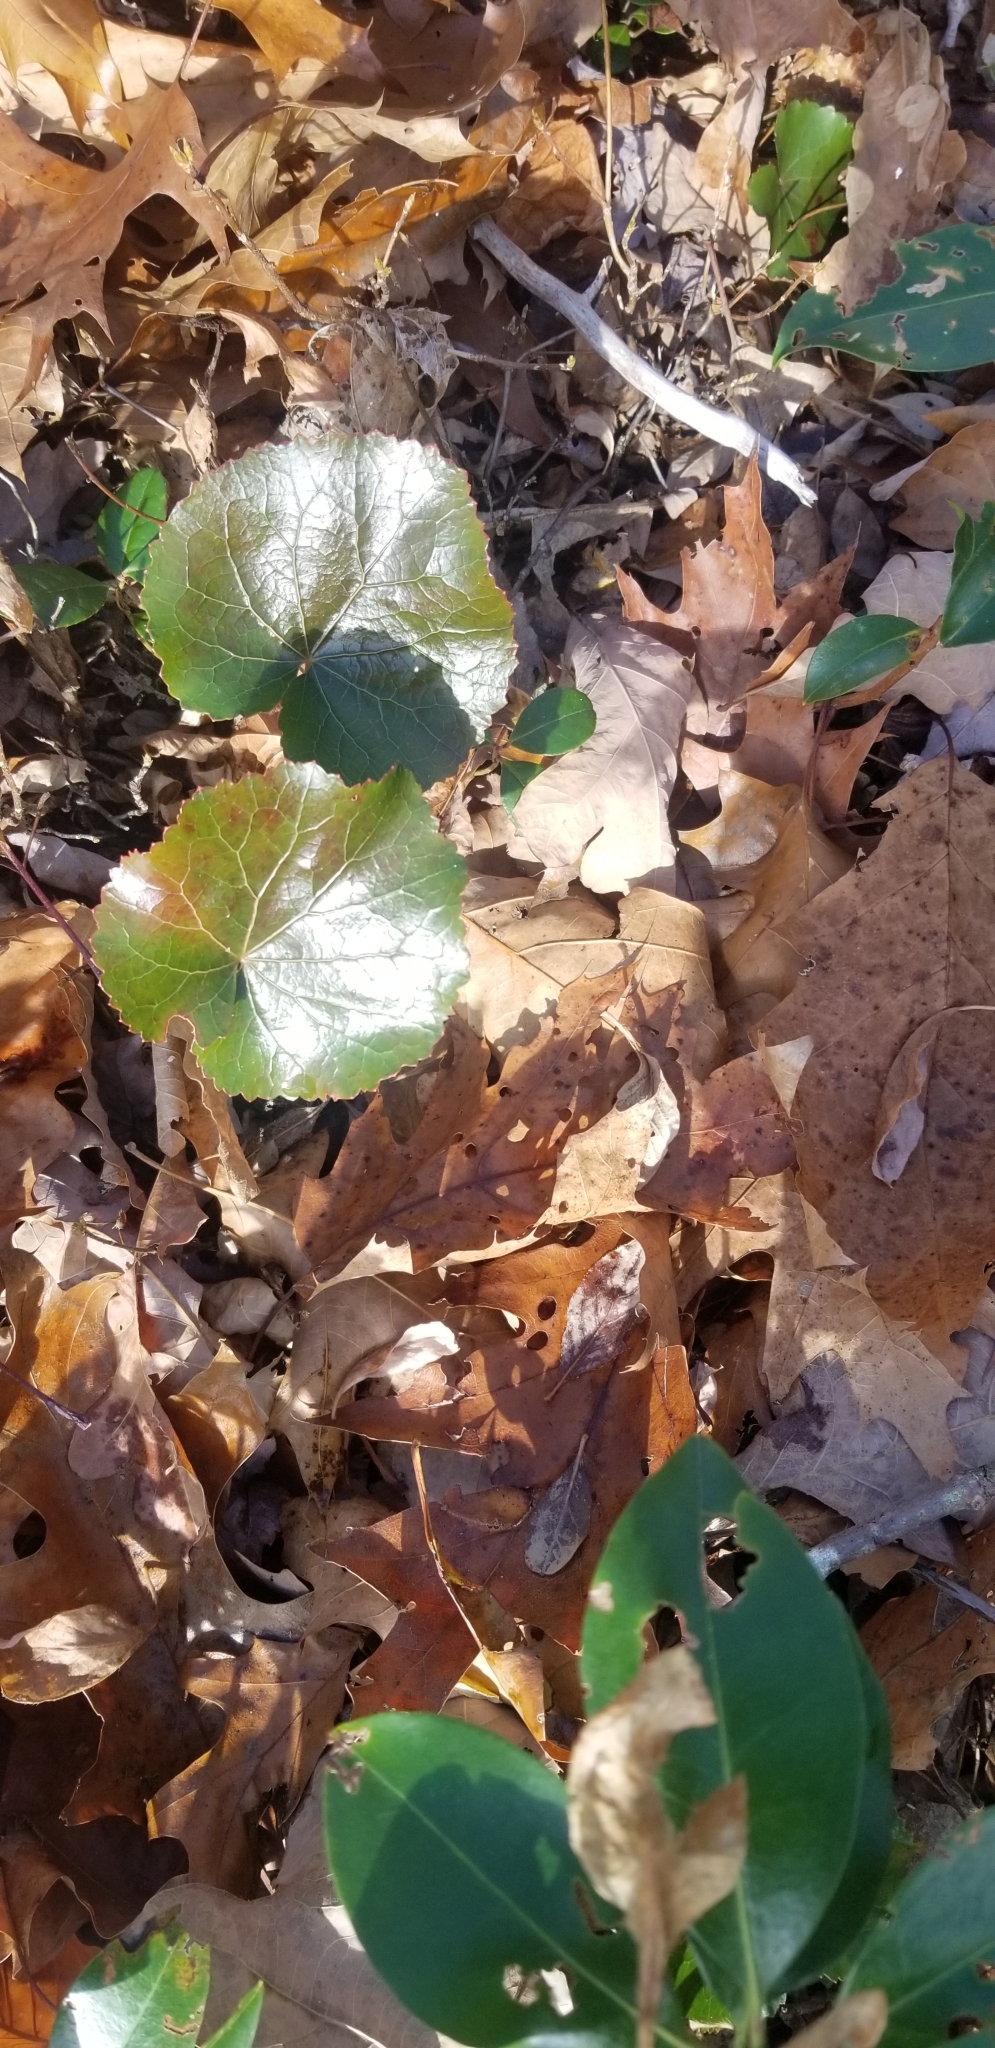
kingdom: Plantae
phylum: Tracheophyta
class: Magnoliopsida
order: Ericales
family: Diapensiaceae
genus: Galax
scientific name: Galax urceolata
